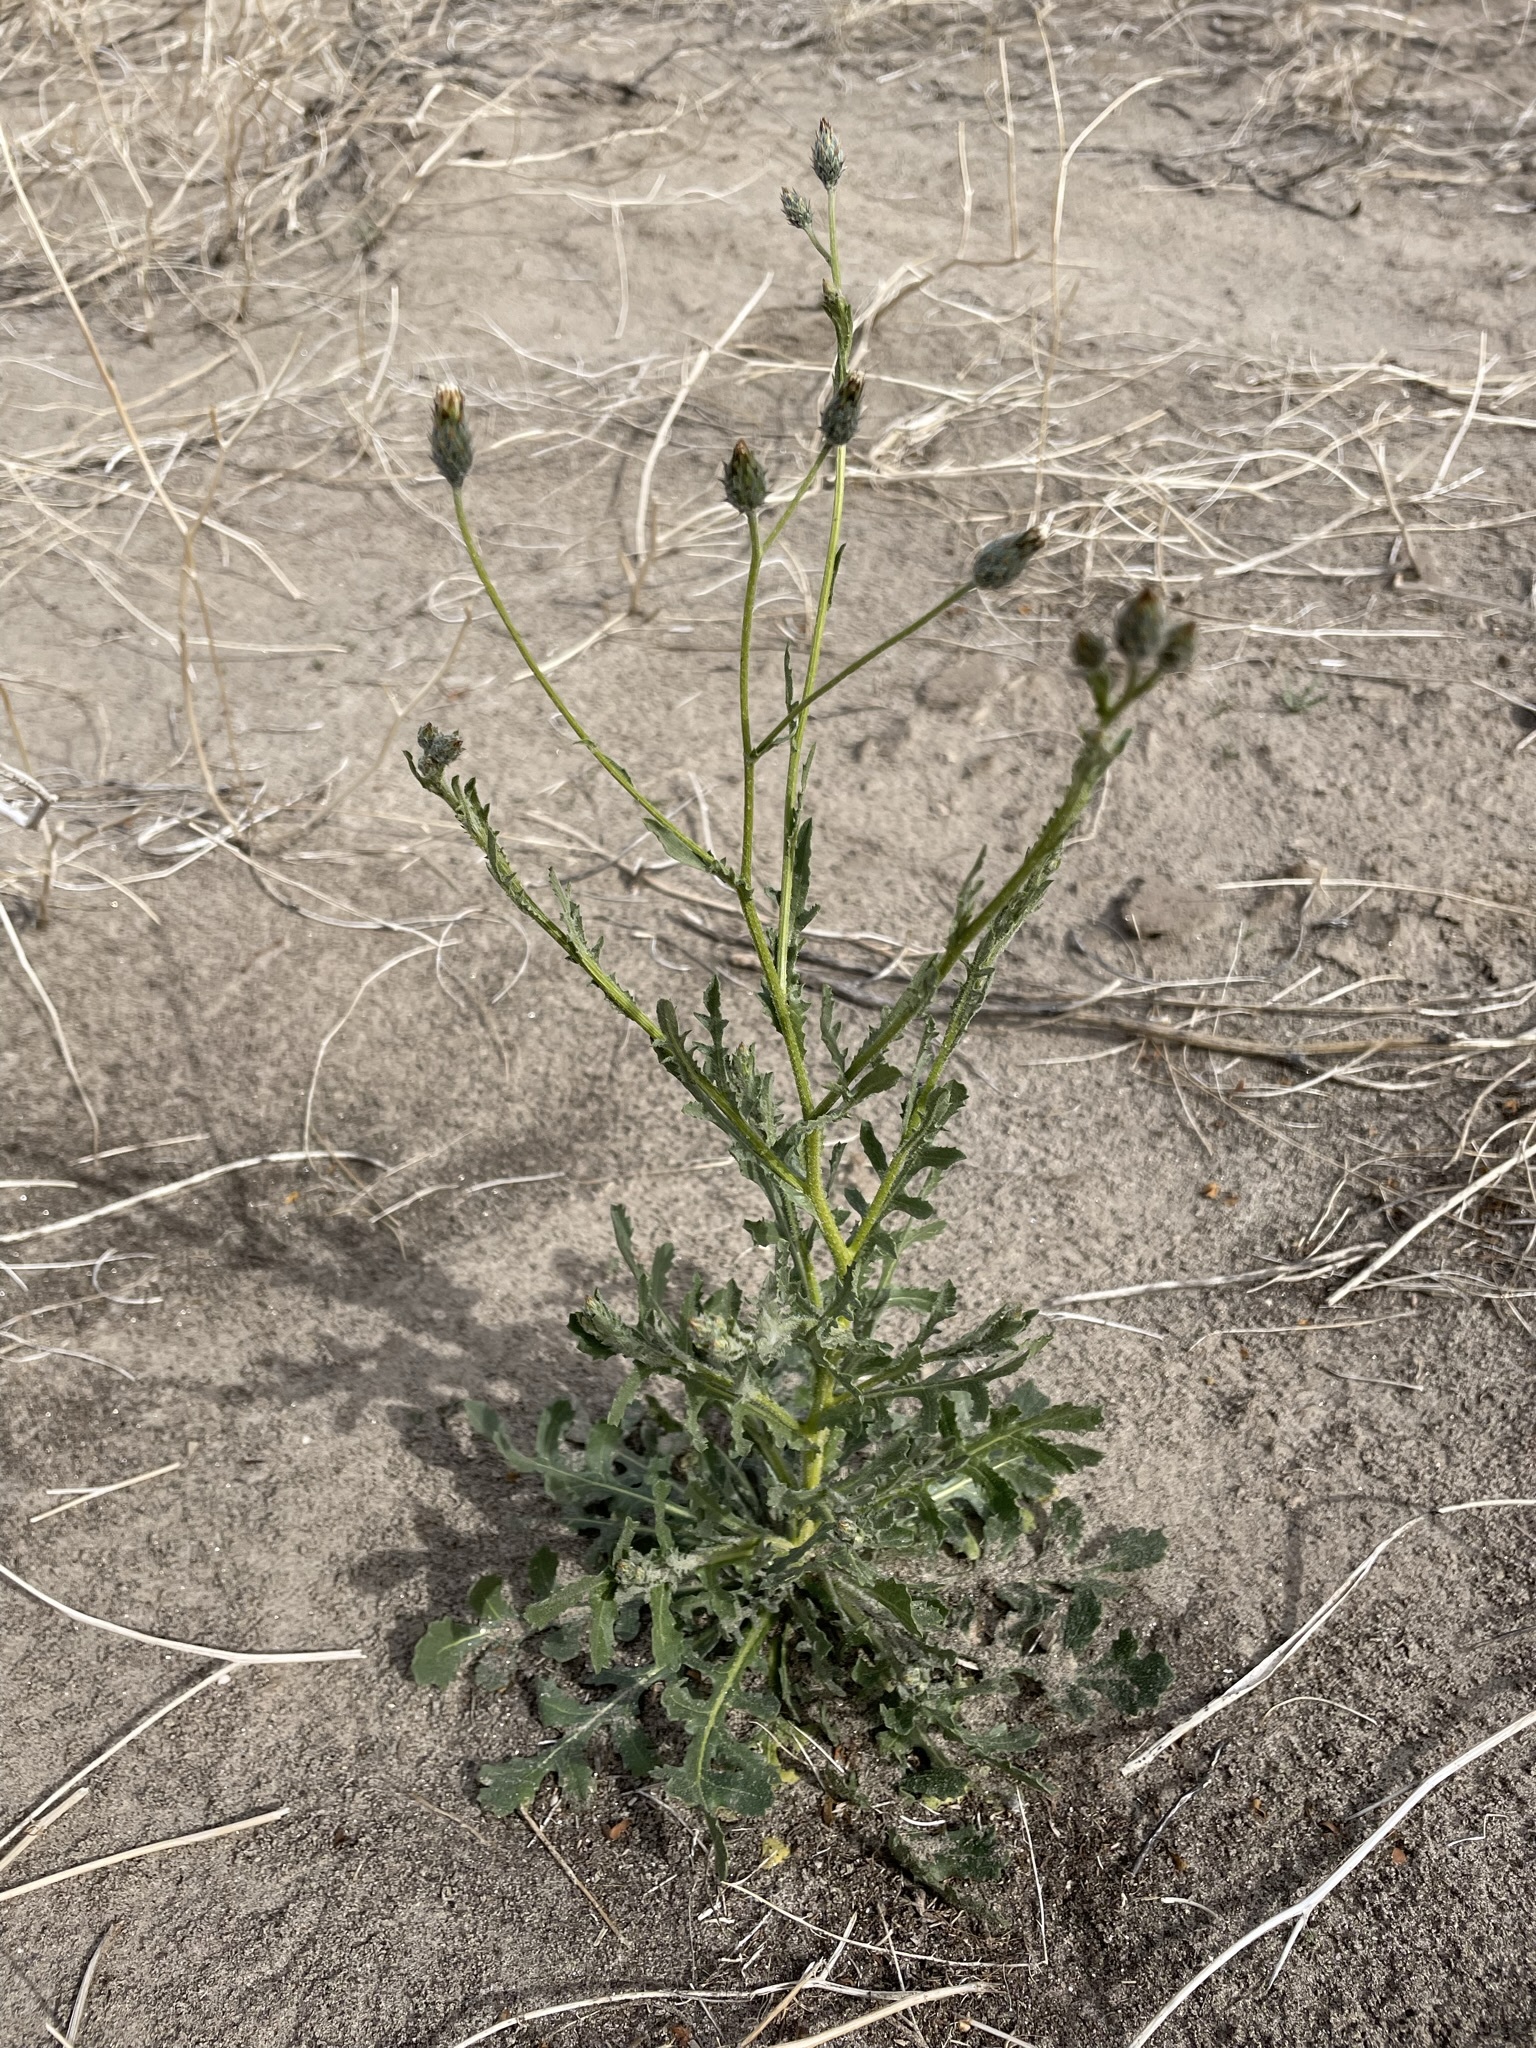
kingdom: Plantae
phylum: Tracheophyta
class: Magnoliopsida
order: Asterales
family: Asteraceae
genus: Volutaria
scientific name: Volutaria tubuliflora
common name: Desert knapweed
